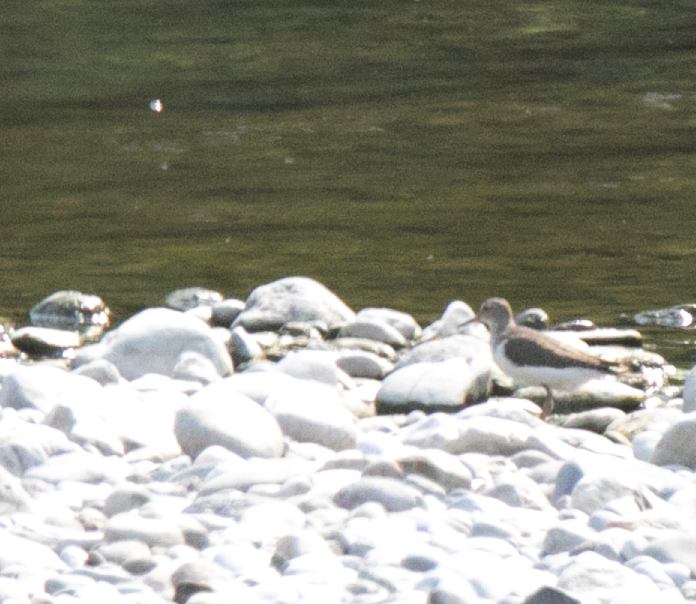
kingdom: Animalia
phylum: Chordata
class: Aves
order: Charadriiformes
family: Scolopacidae
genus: Actitis
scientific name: Actitis hypoleucos
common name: Common sandpiper
